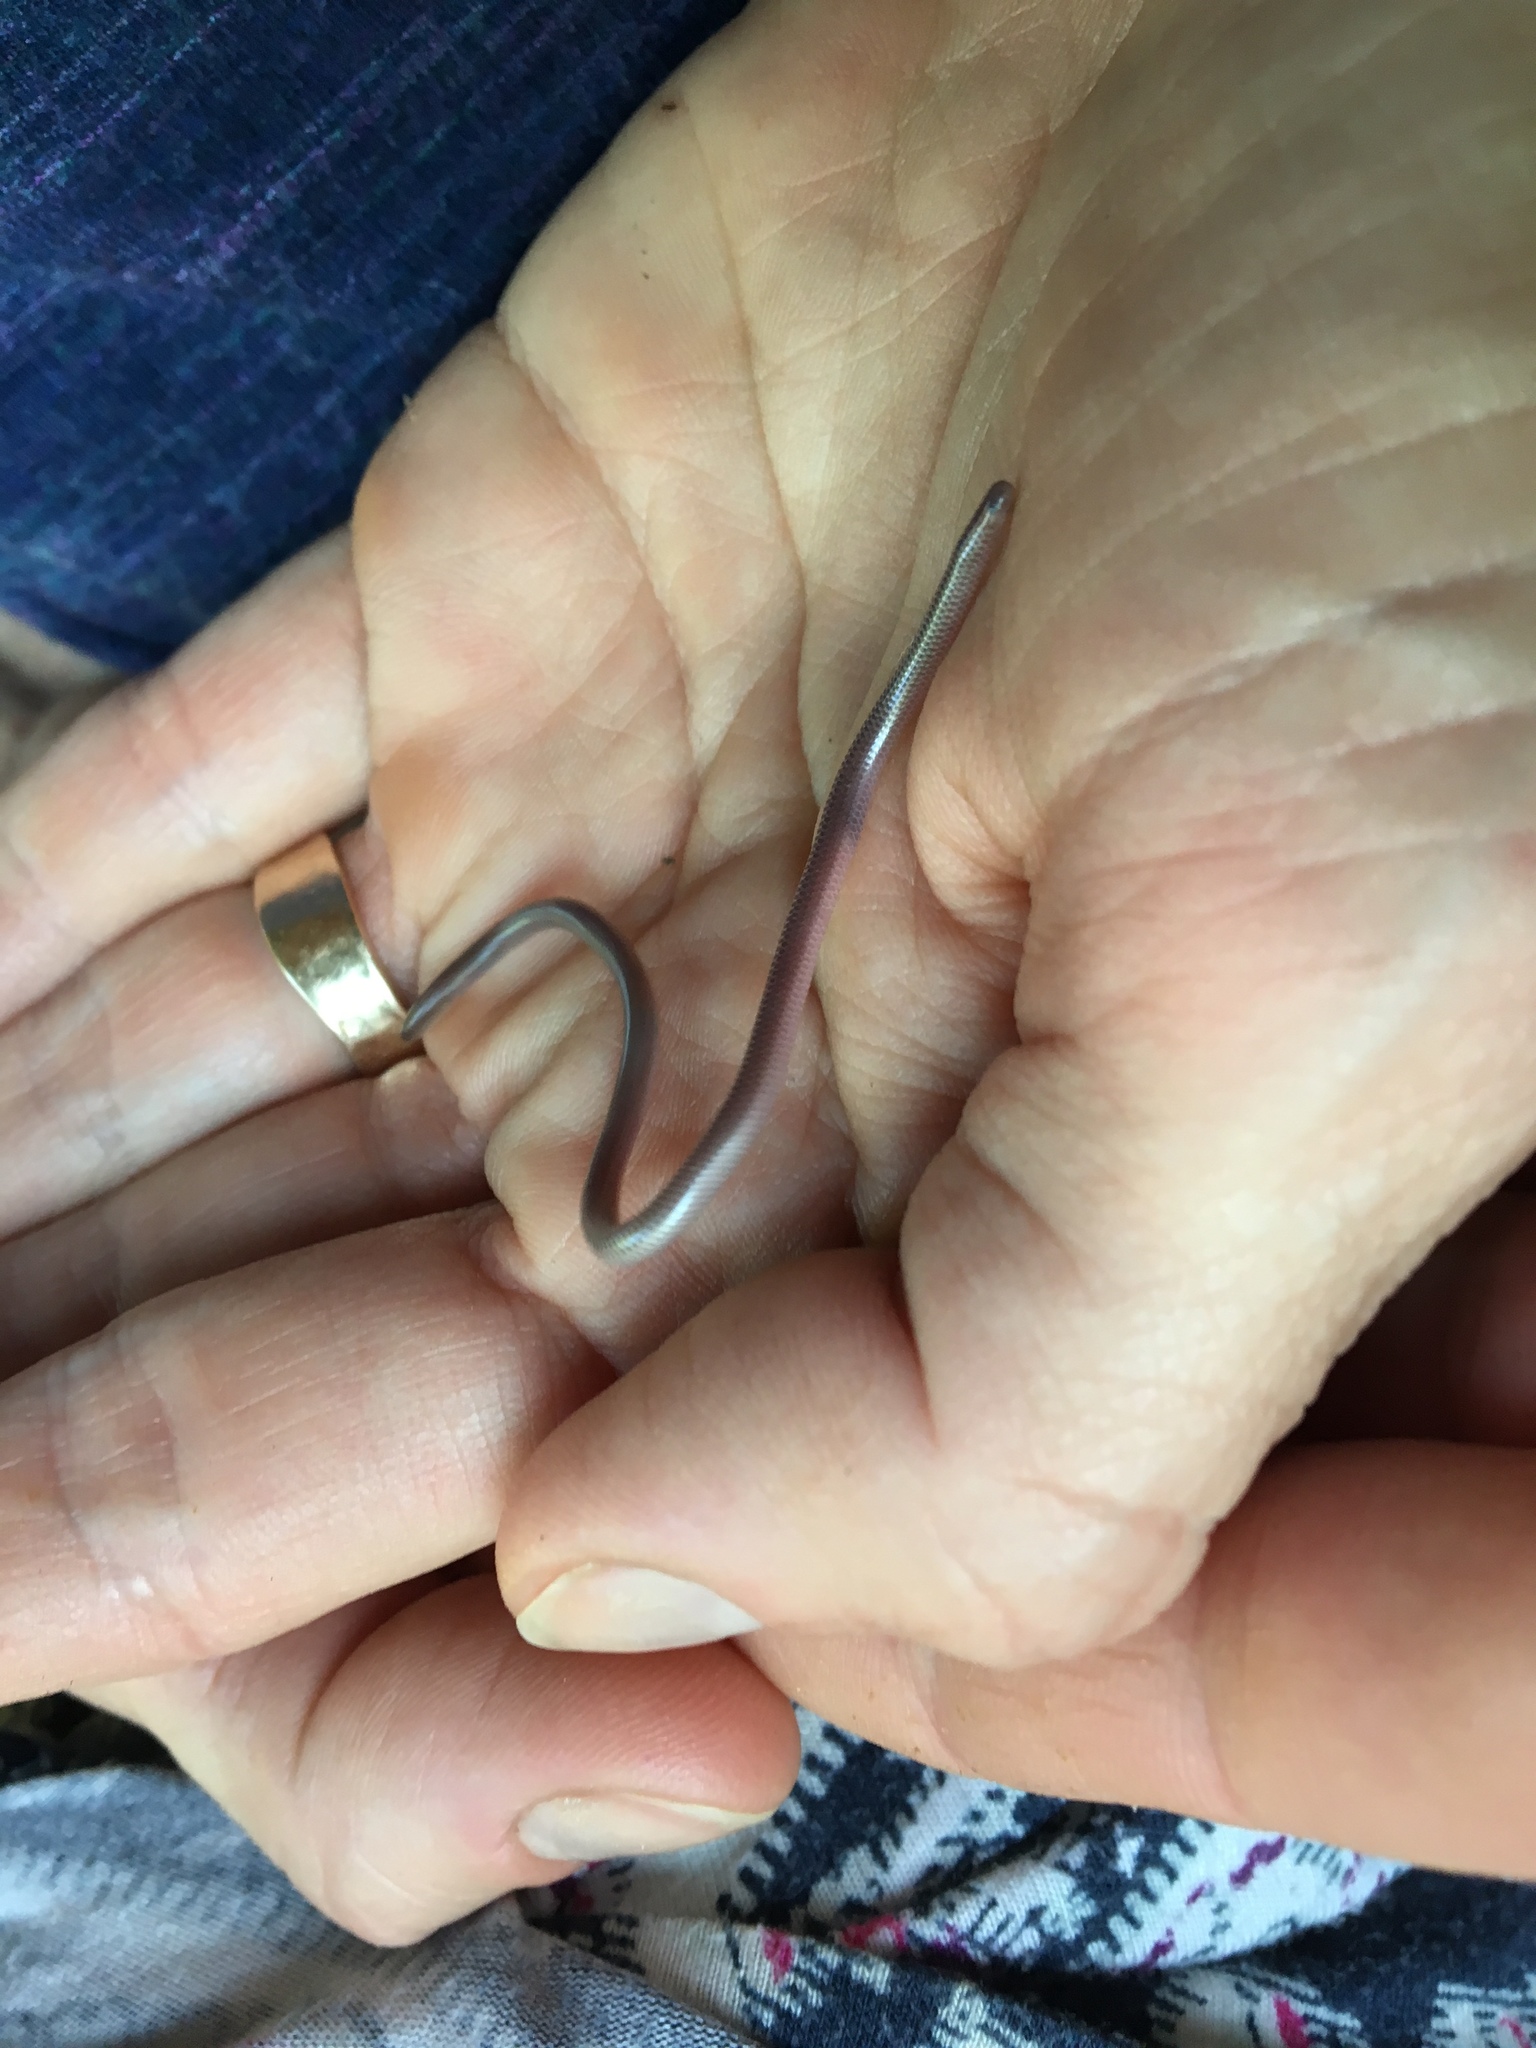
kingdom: Animalia
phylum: Chordata
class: Squamata
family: Leptotyphlopidae
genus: Rena
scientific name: Rena dulcis
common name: Texas blind snake
